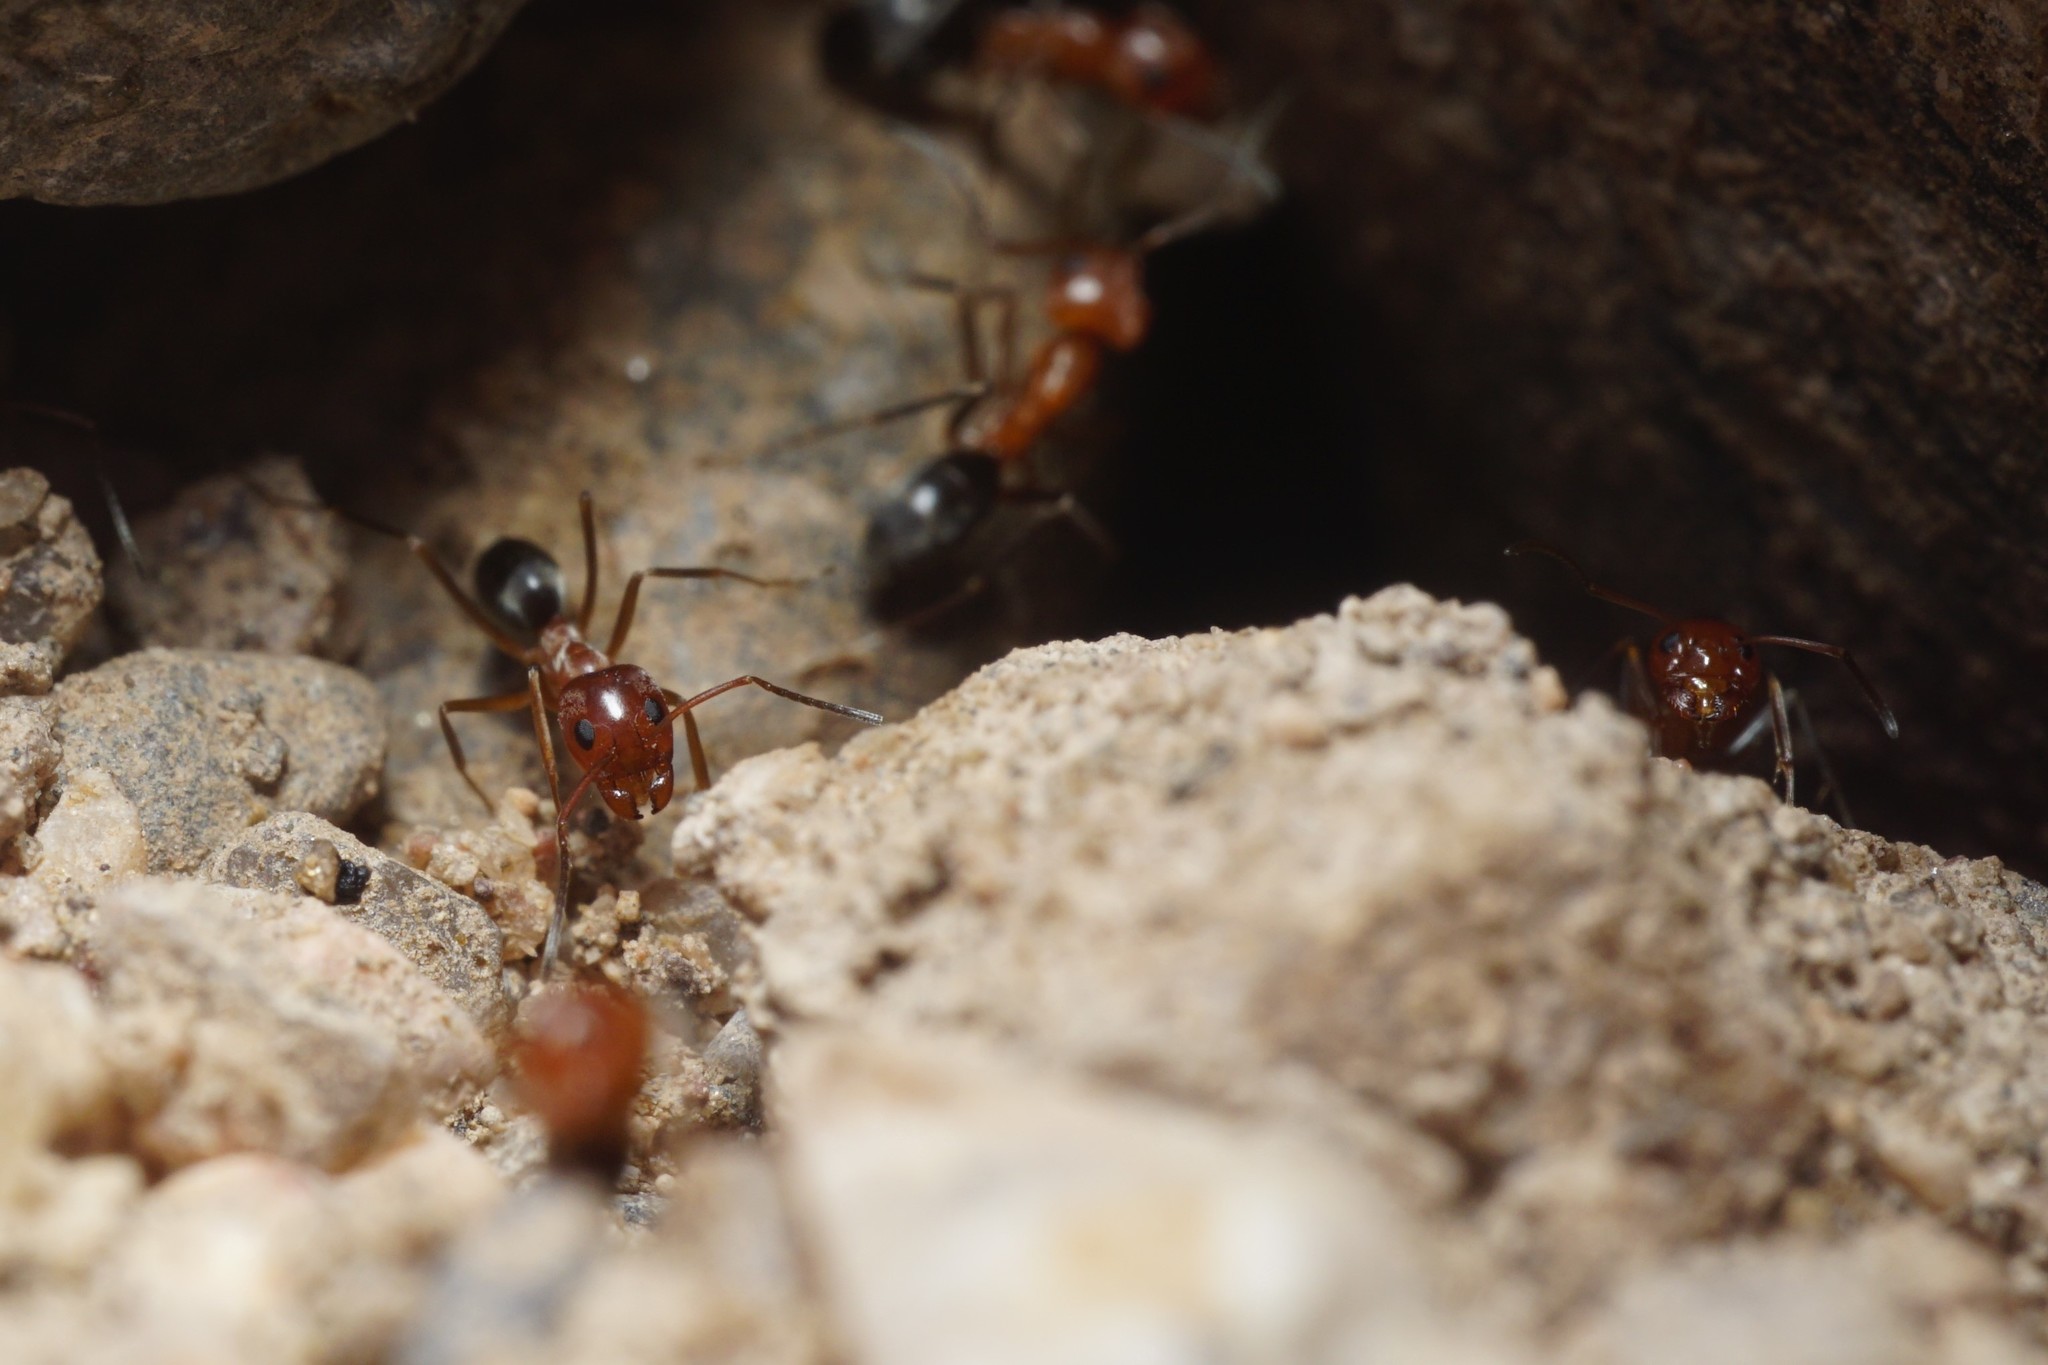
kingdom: Animalia
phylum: Arthropoda
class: Insecta
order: Hymenoptera
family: Formicidae
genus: Dorymyrmex
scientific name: Dorymyrmex bicolor
